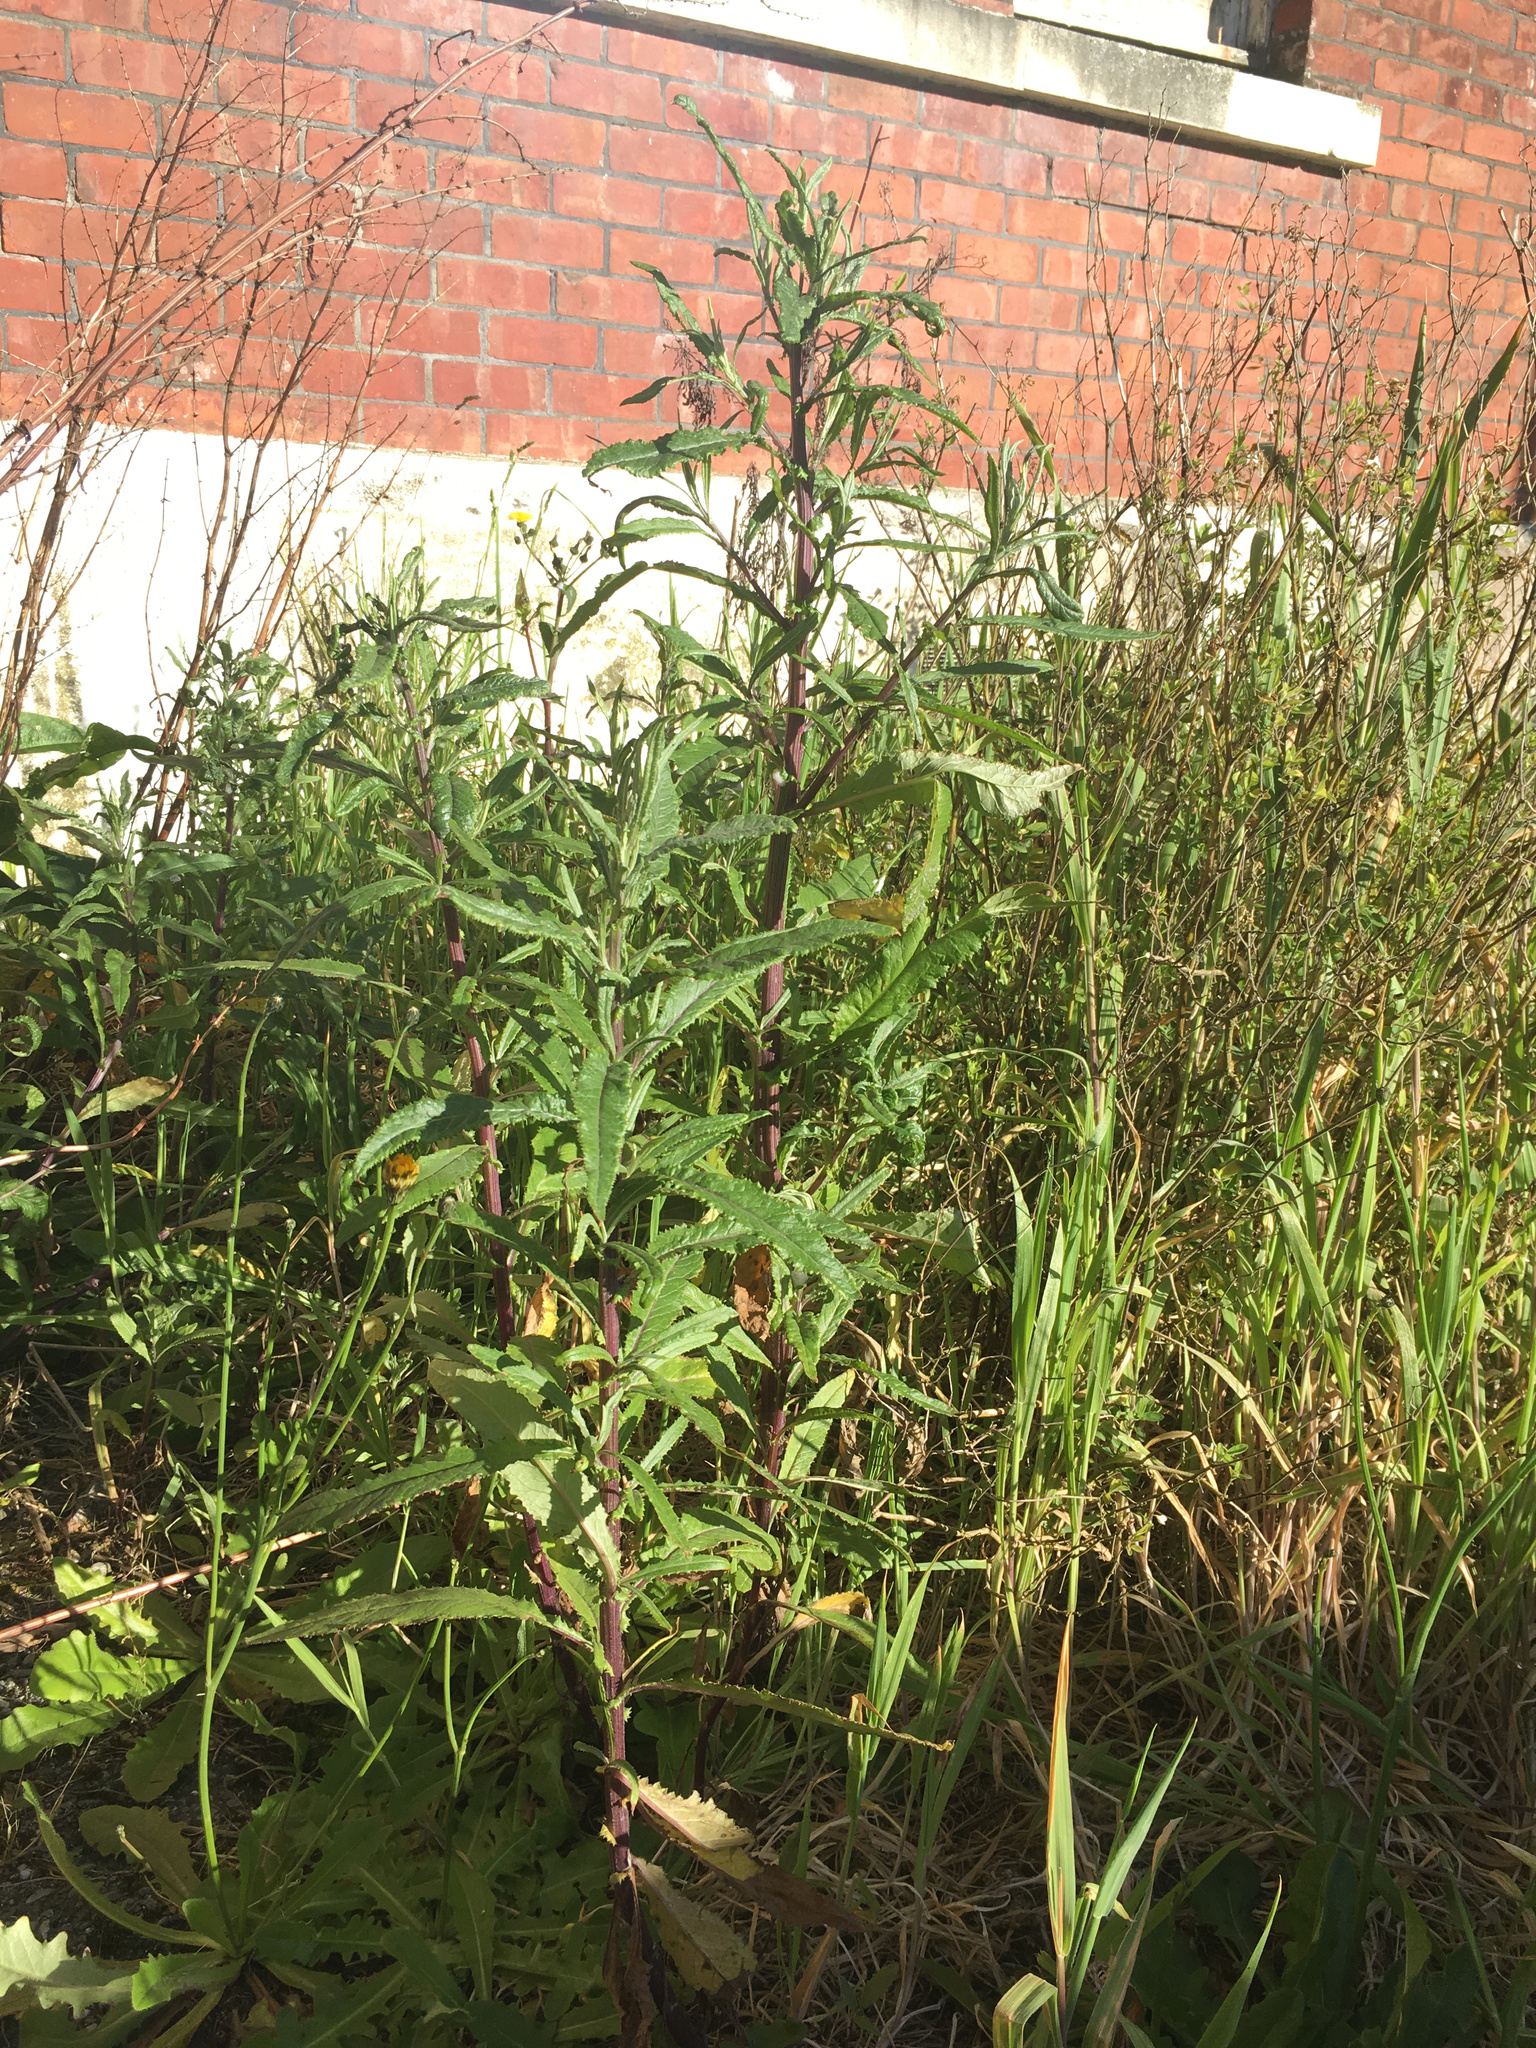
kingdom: Plantae
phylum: Tracheophyta
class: Magnoliopsida
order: Asterales
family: Asteraceae
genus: Senecio
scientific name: Senecio minimus
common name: Toothed fireweed
